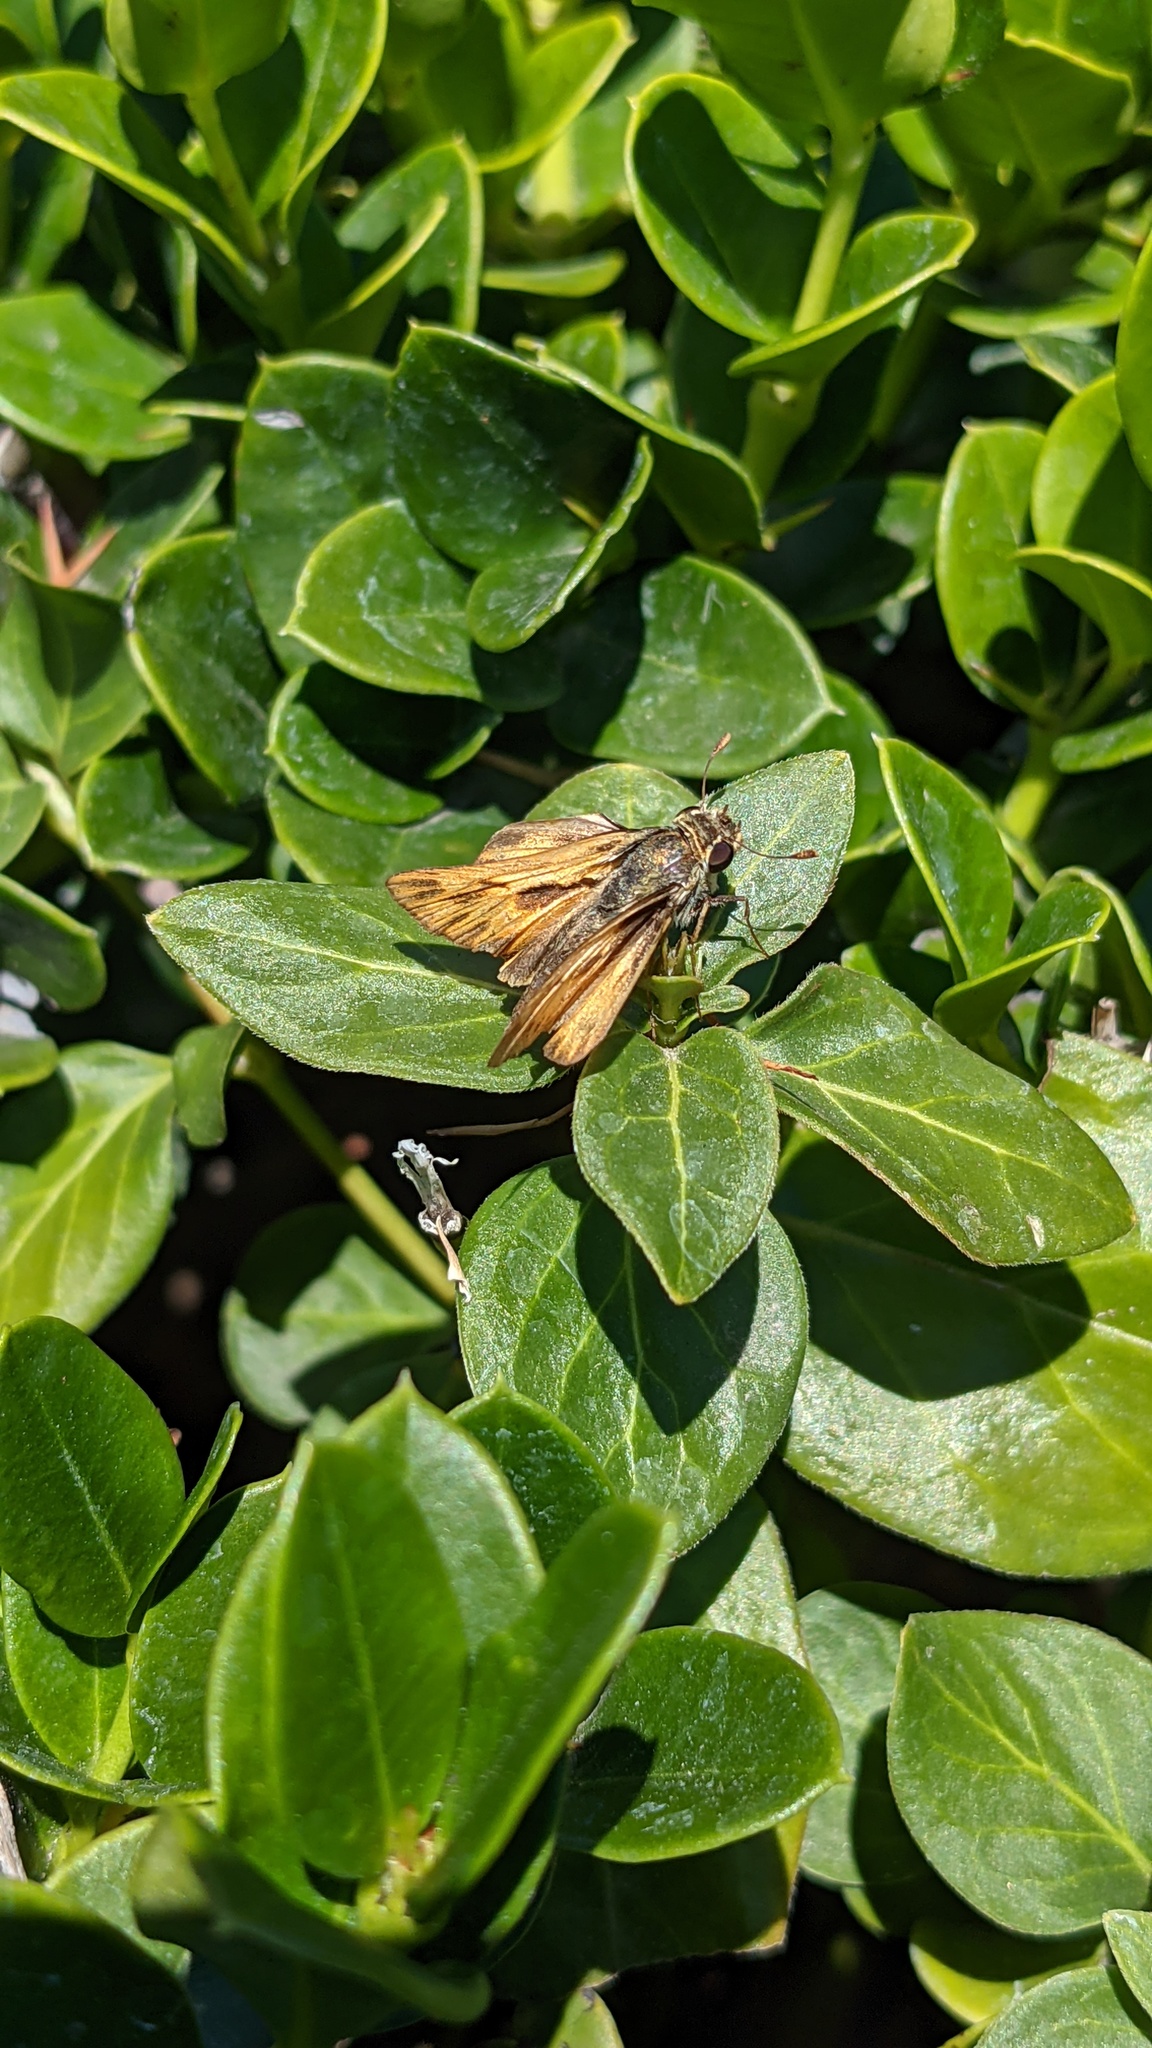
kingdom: Animalia
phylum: Arthropoda
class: Insecta
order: Lepidoptera
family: Hesperiidae
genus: Hylephila
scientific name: Hylephila phyleus
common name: Fiery skipper
